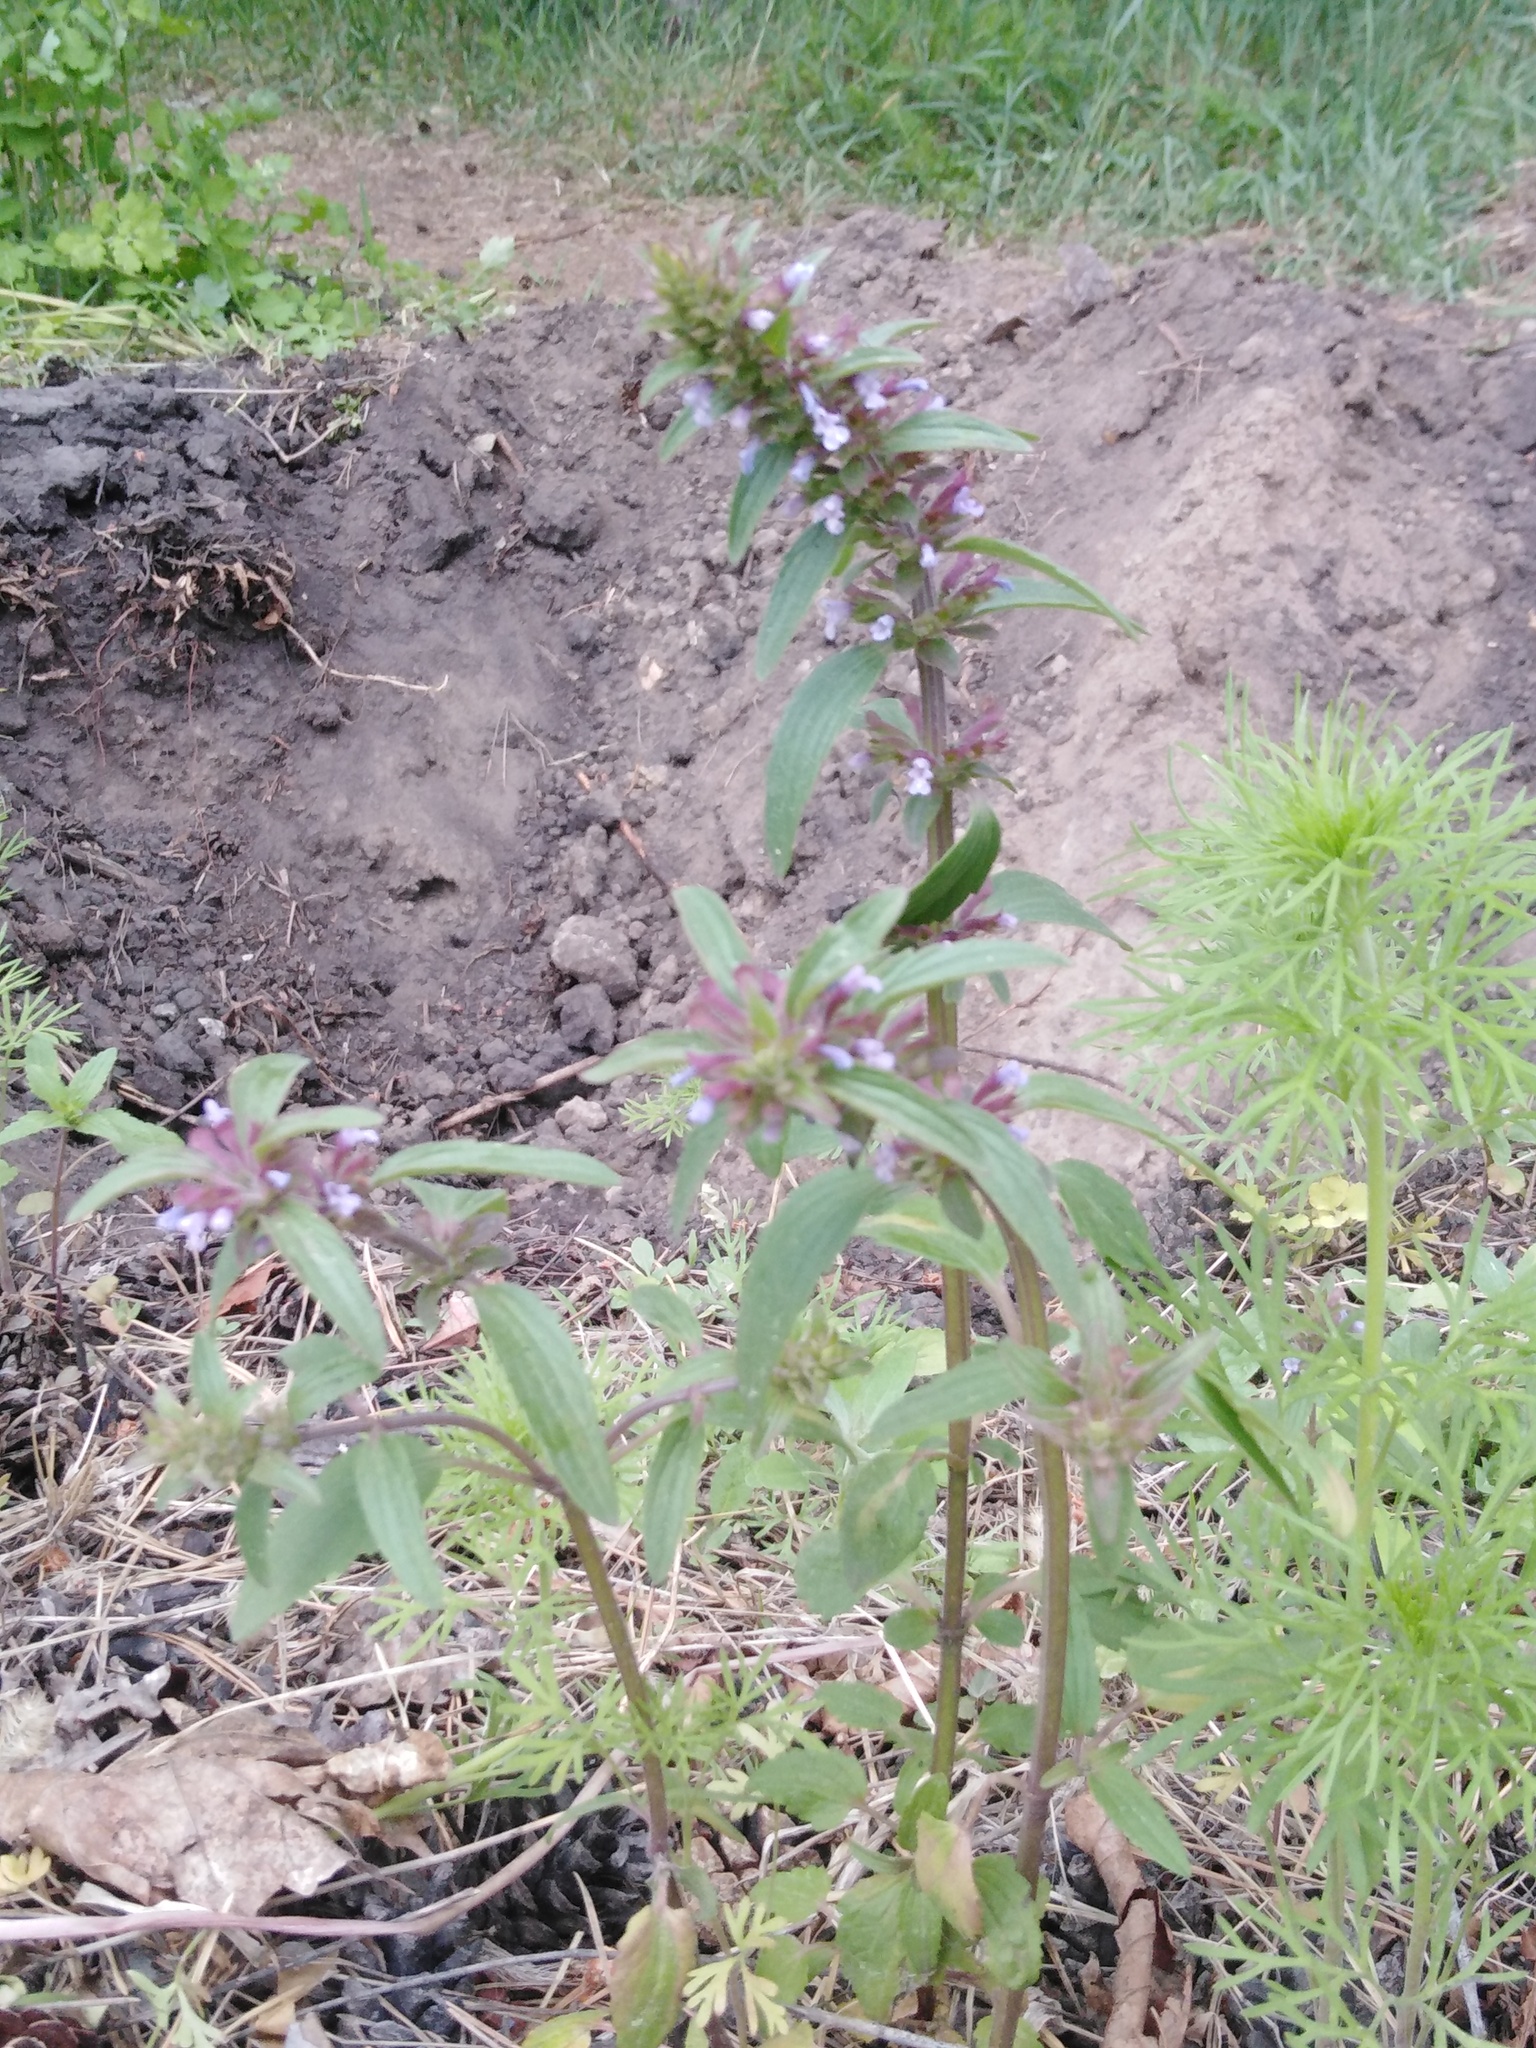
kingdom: Plantae
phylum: Tracheophyta
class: Magnoliopsida
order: Lamiales
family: Lamiaceae
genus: Dracocephalum
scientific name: Dracocephalum thymiflorum
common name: Thymeleaf dragonhead
